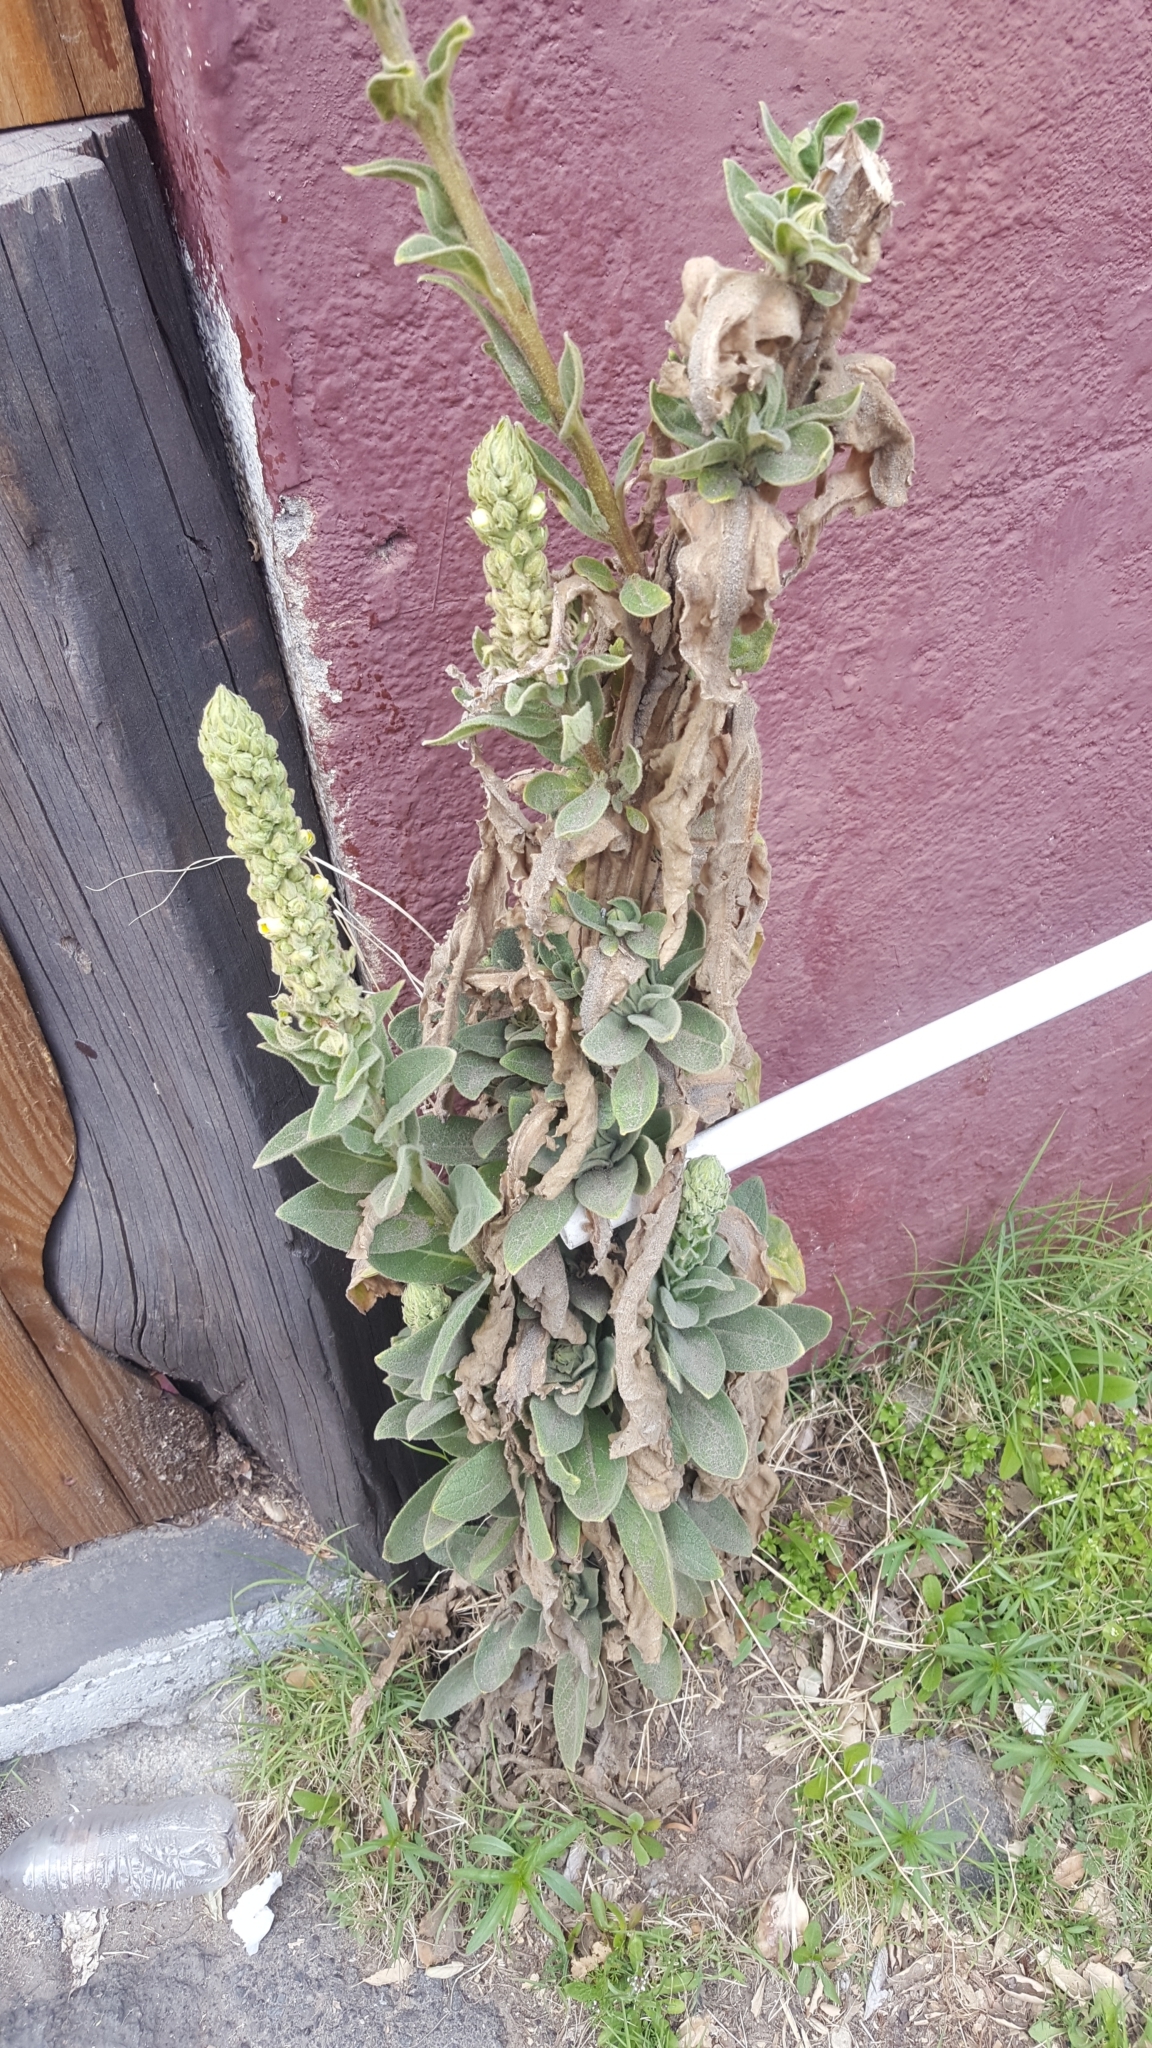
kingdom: Plantae
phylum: Tracheophyta
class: Magnoliopsida
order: Lamiales
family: Scrophulariaceae
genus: Verbascum
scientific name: Verbascum thapsus
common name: Common mullein
